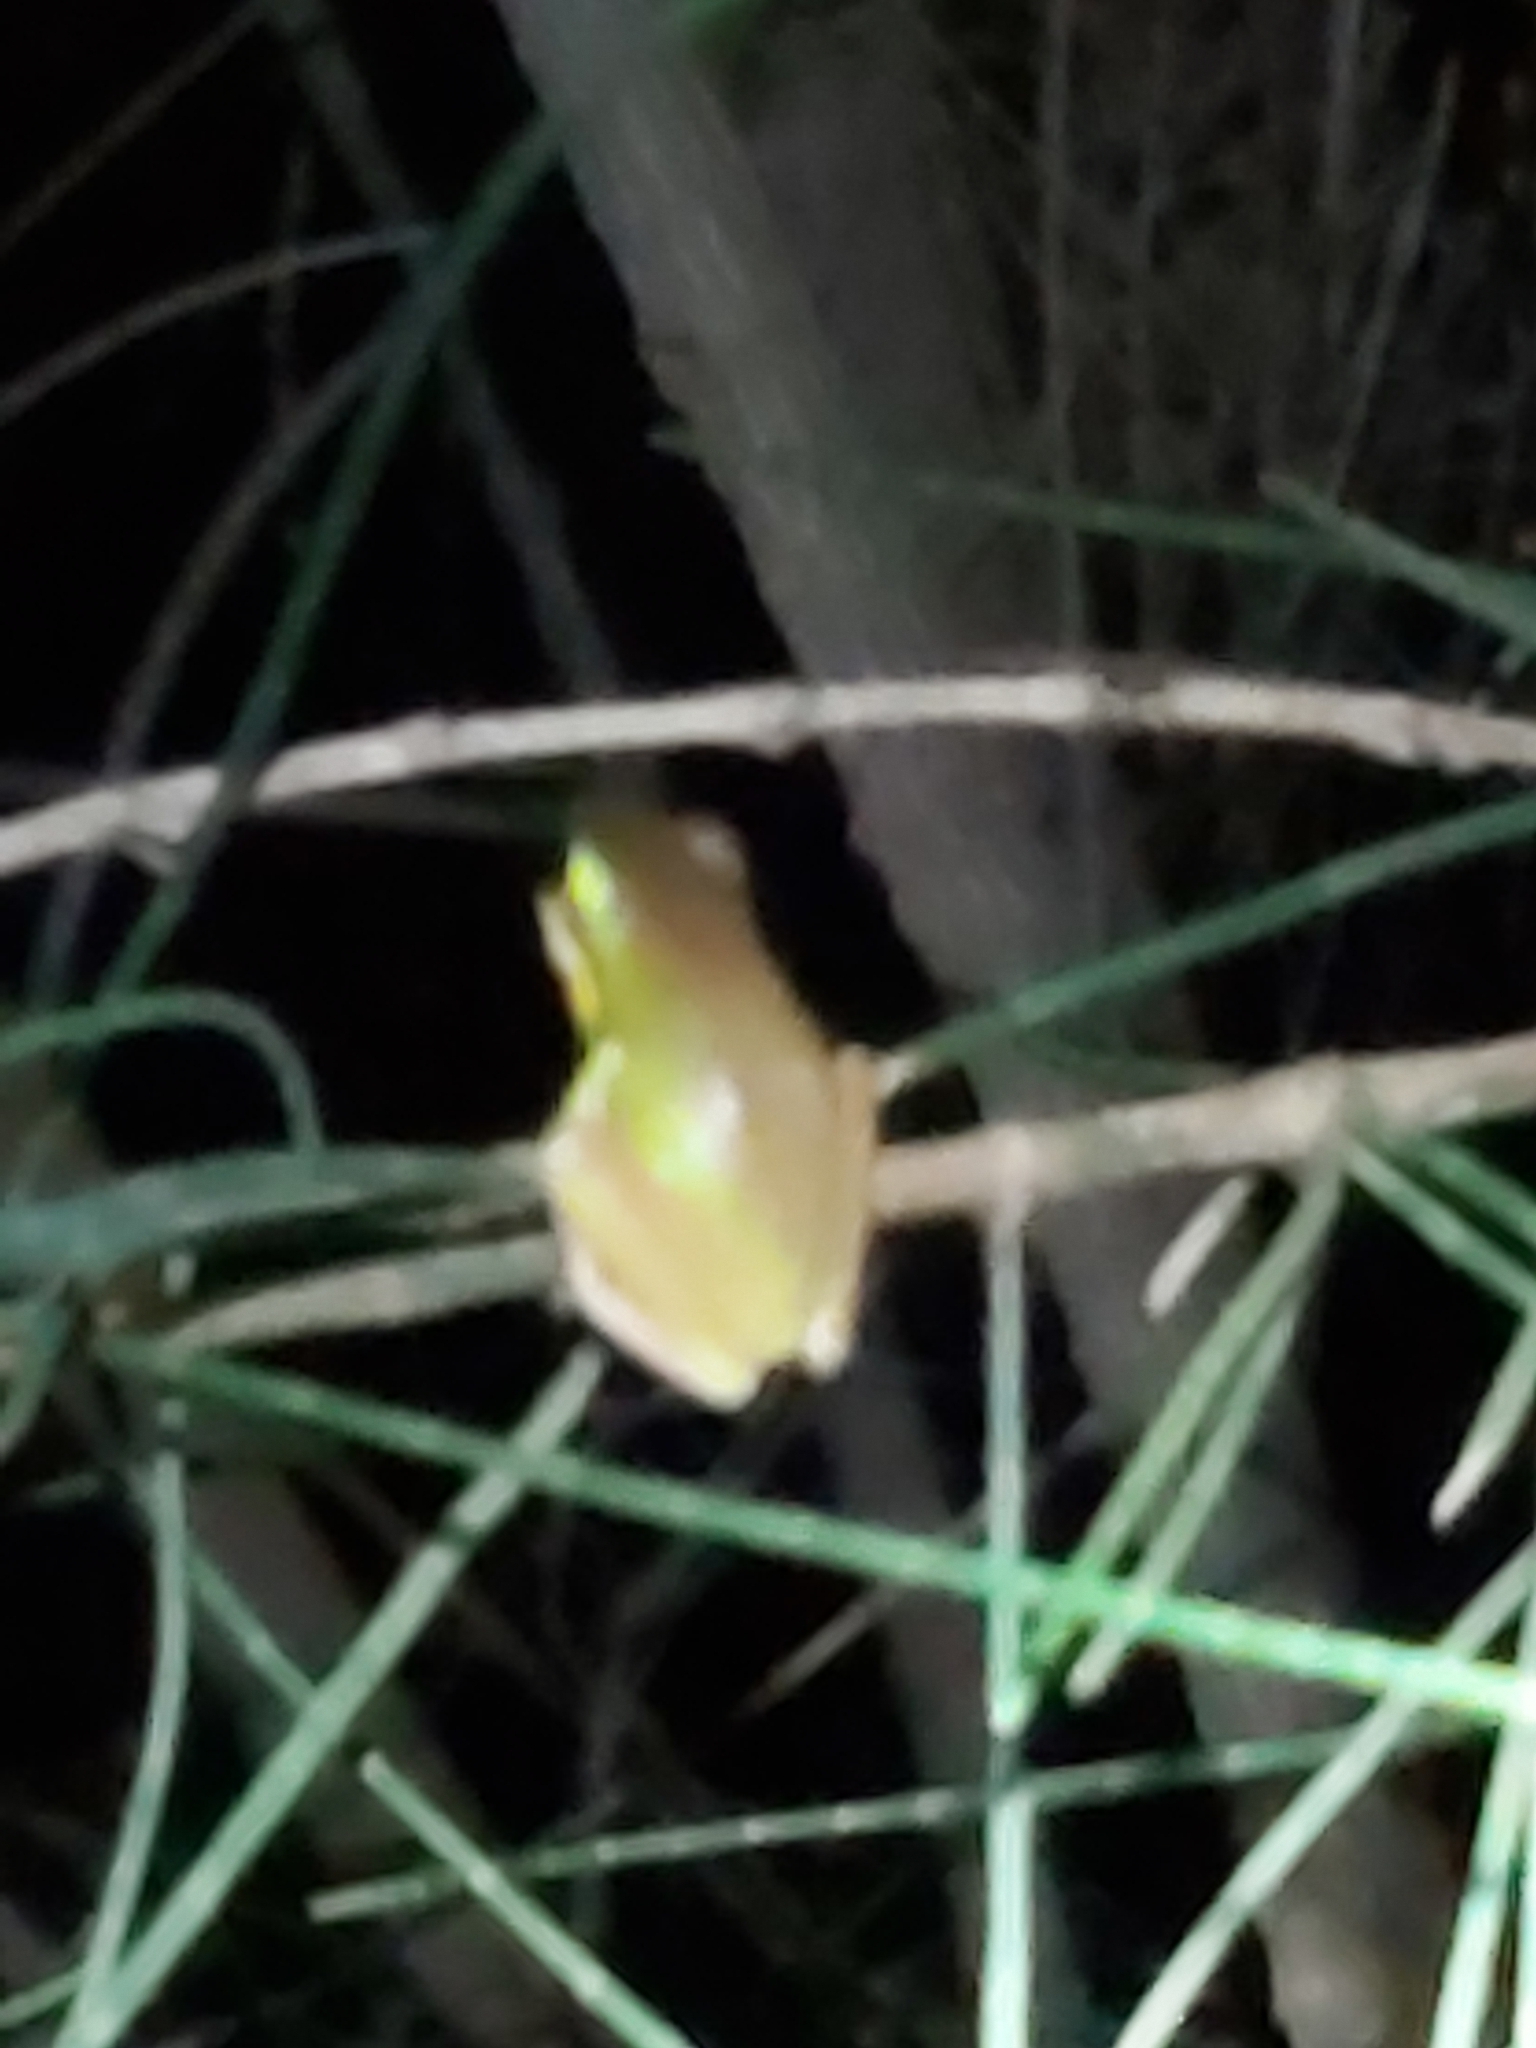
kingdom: Animalia
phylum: Chordata
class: Amphibia
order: Anura
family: Pelodryadidae
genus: Litoria
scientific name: Litoria fallax
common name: Eastern dwarf treefrog
